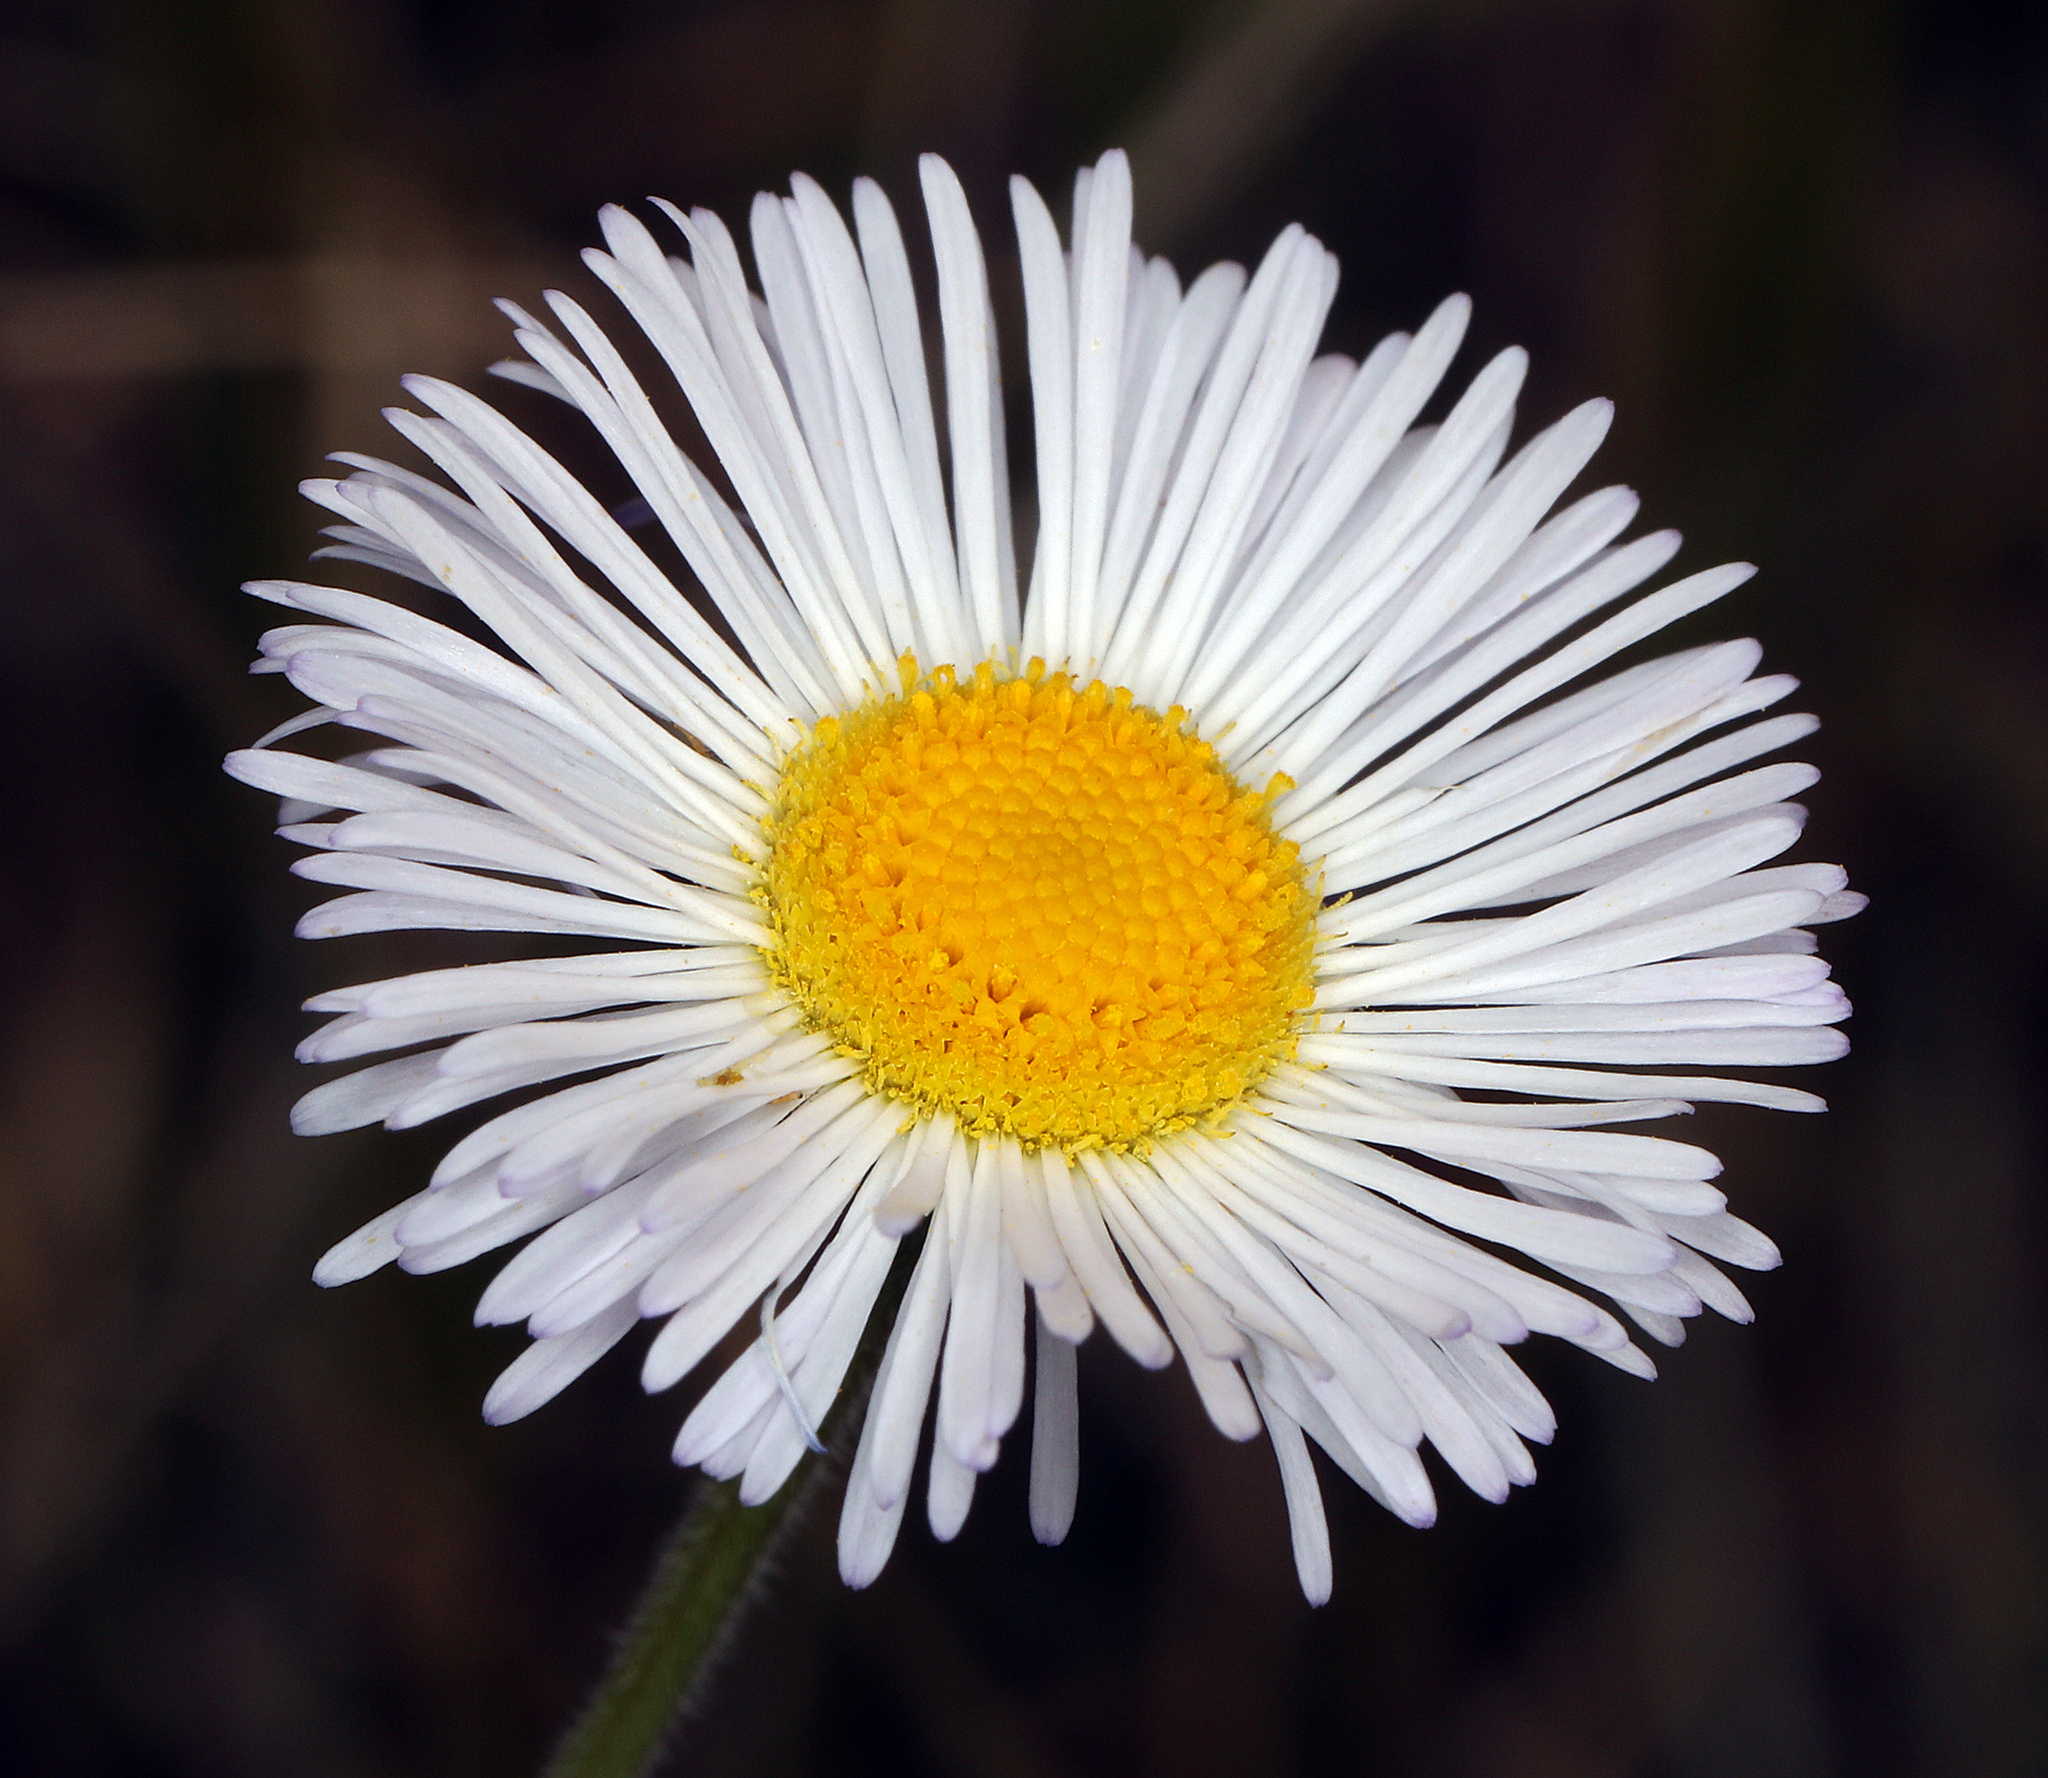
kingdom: Plantae
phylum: Tracheophyta
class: Magnoliopsida
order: Asterales
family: Asteraceae
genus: Erigeron
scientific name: Erigeron divergens
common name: Diffuse fleabane
